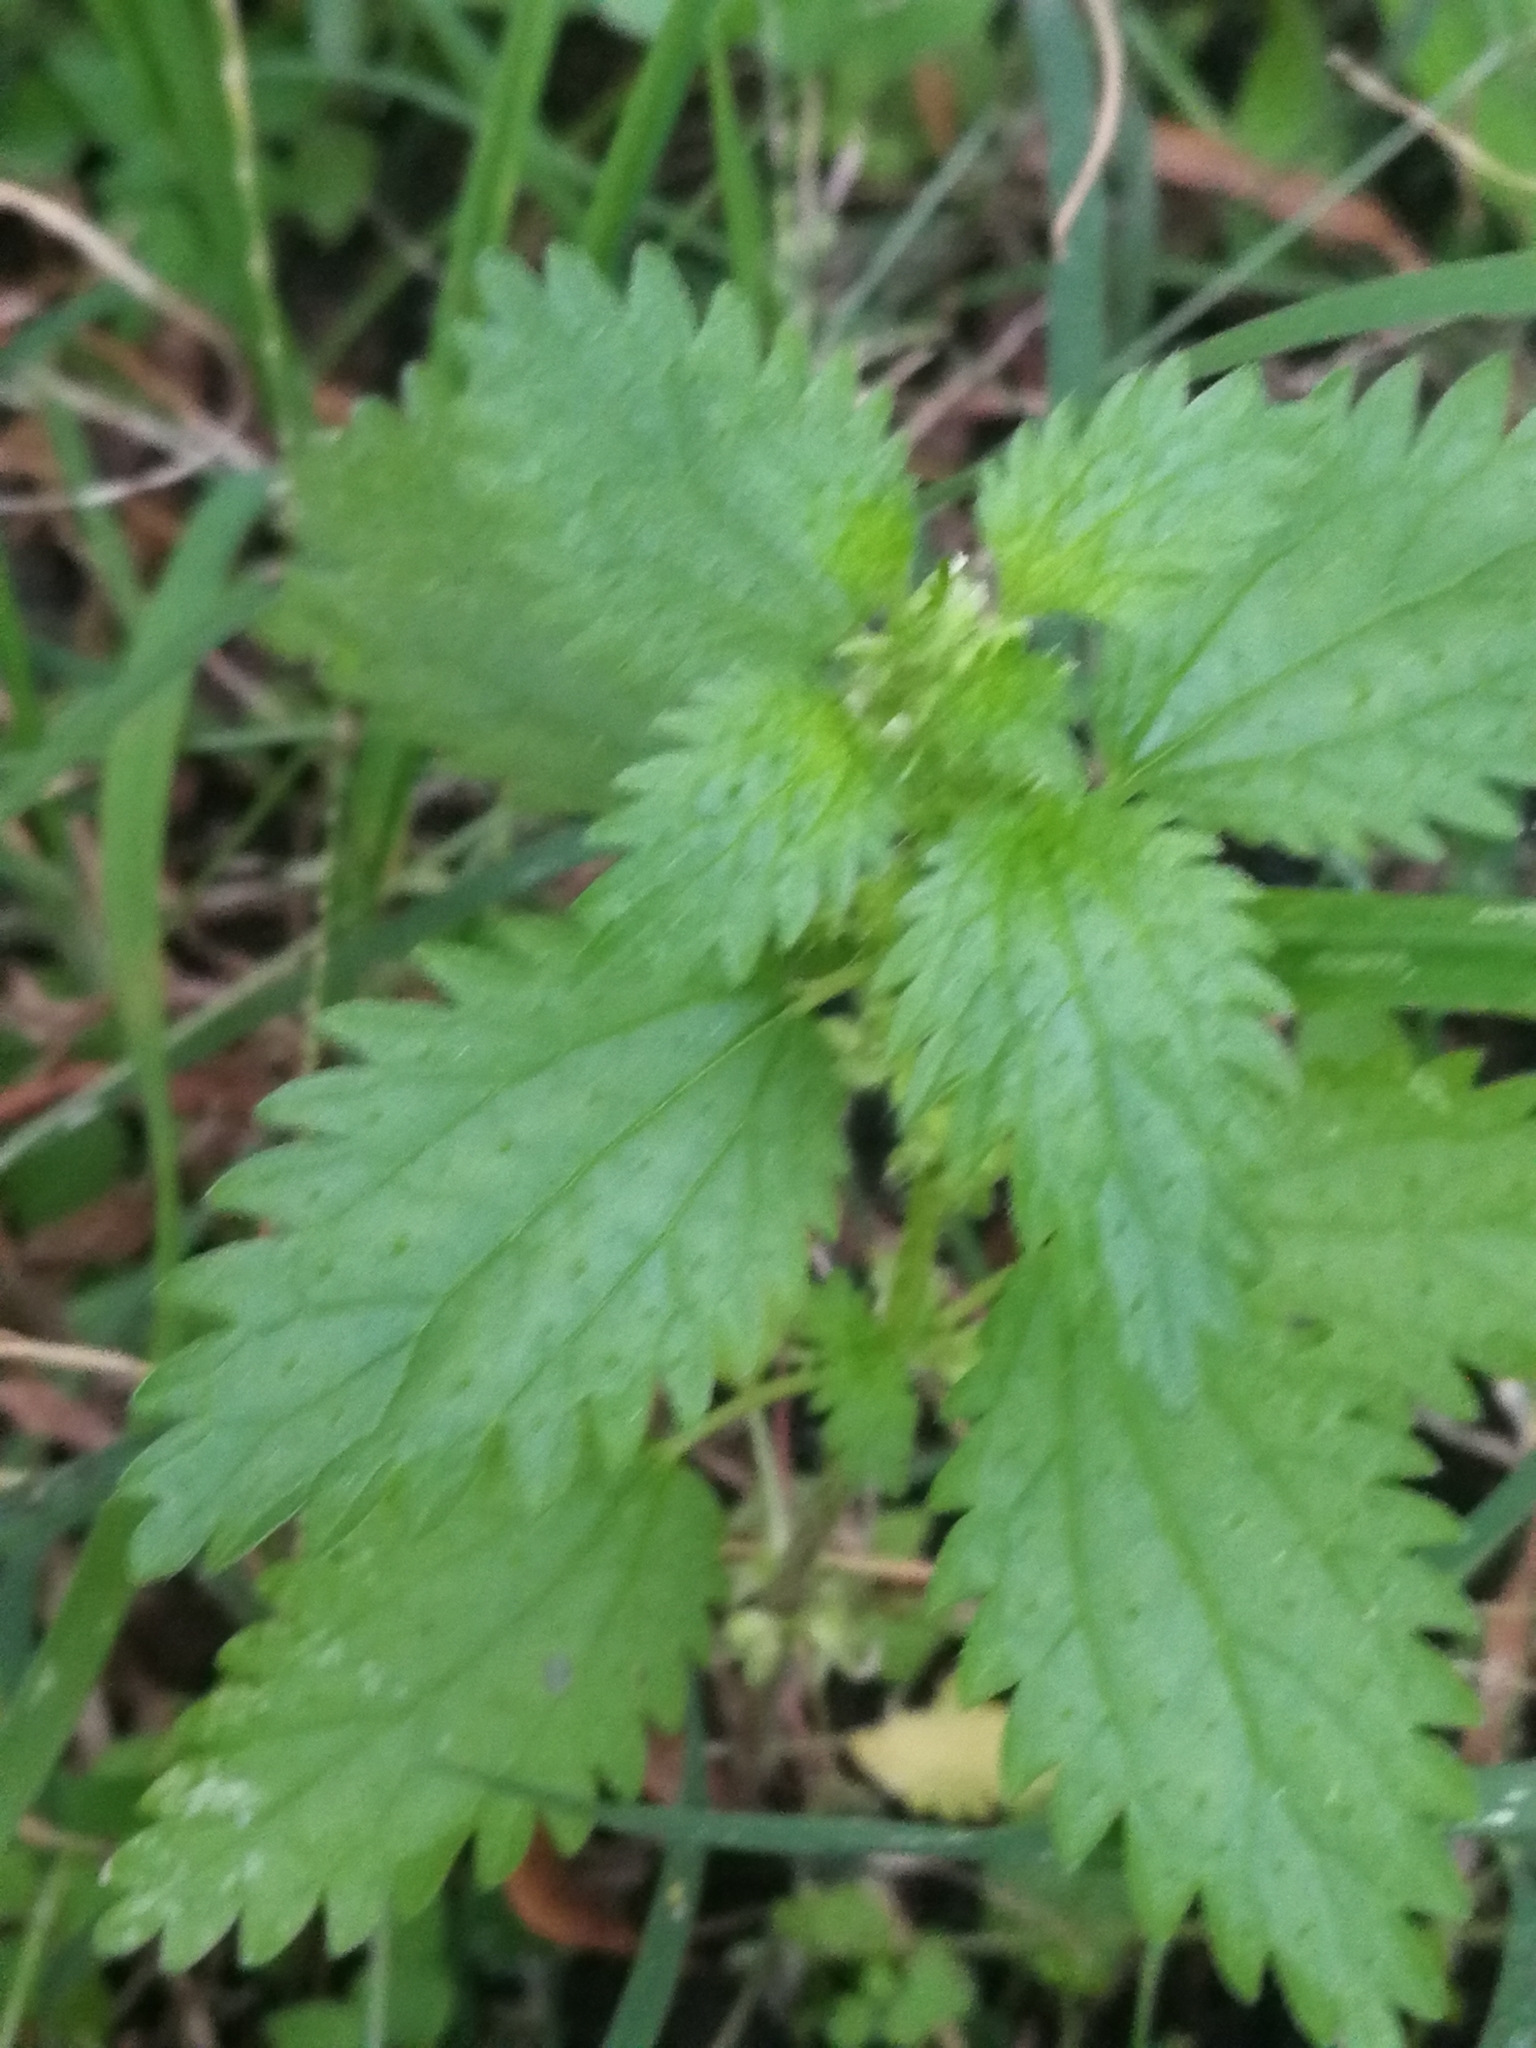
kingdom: Plantae
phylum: Tracheophyta
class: Magnoliopsida
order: Rosales
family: Urticaceae
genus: Urtica
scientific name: Urtica dioica
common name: Common nettle
